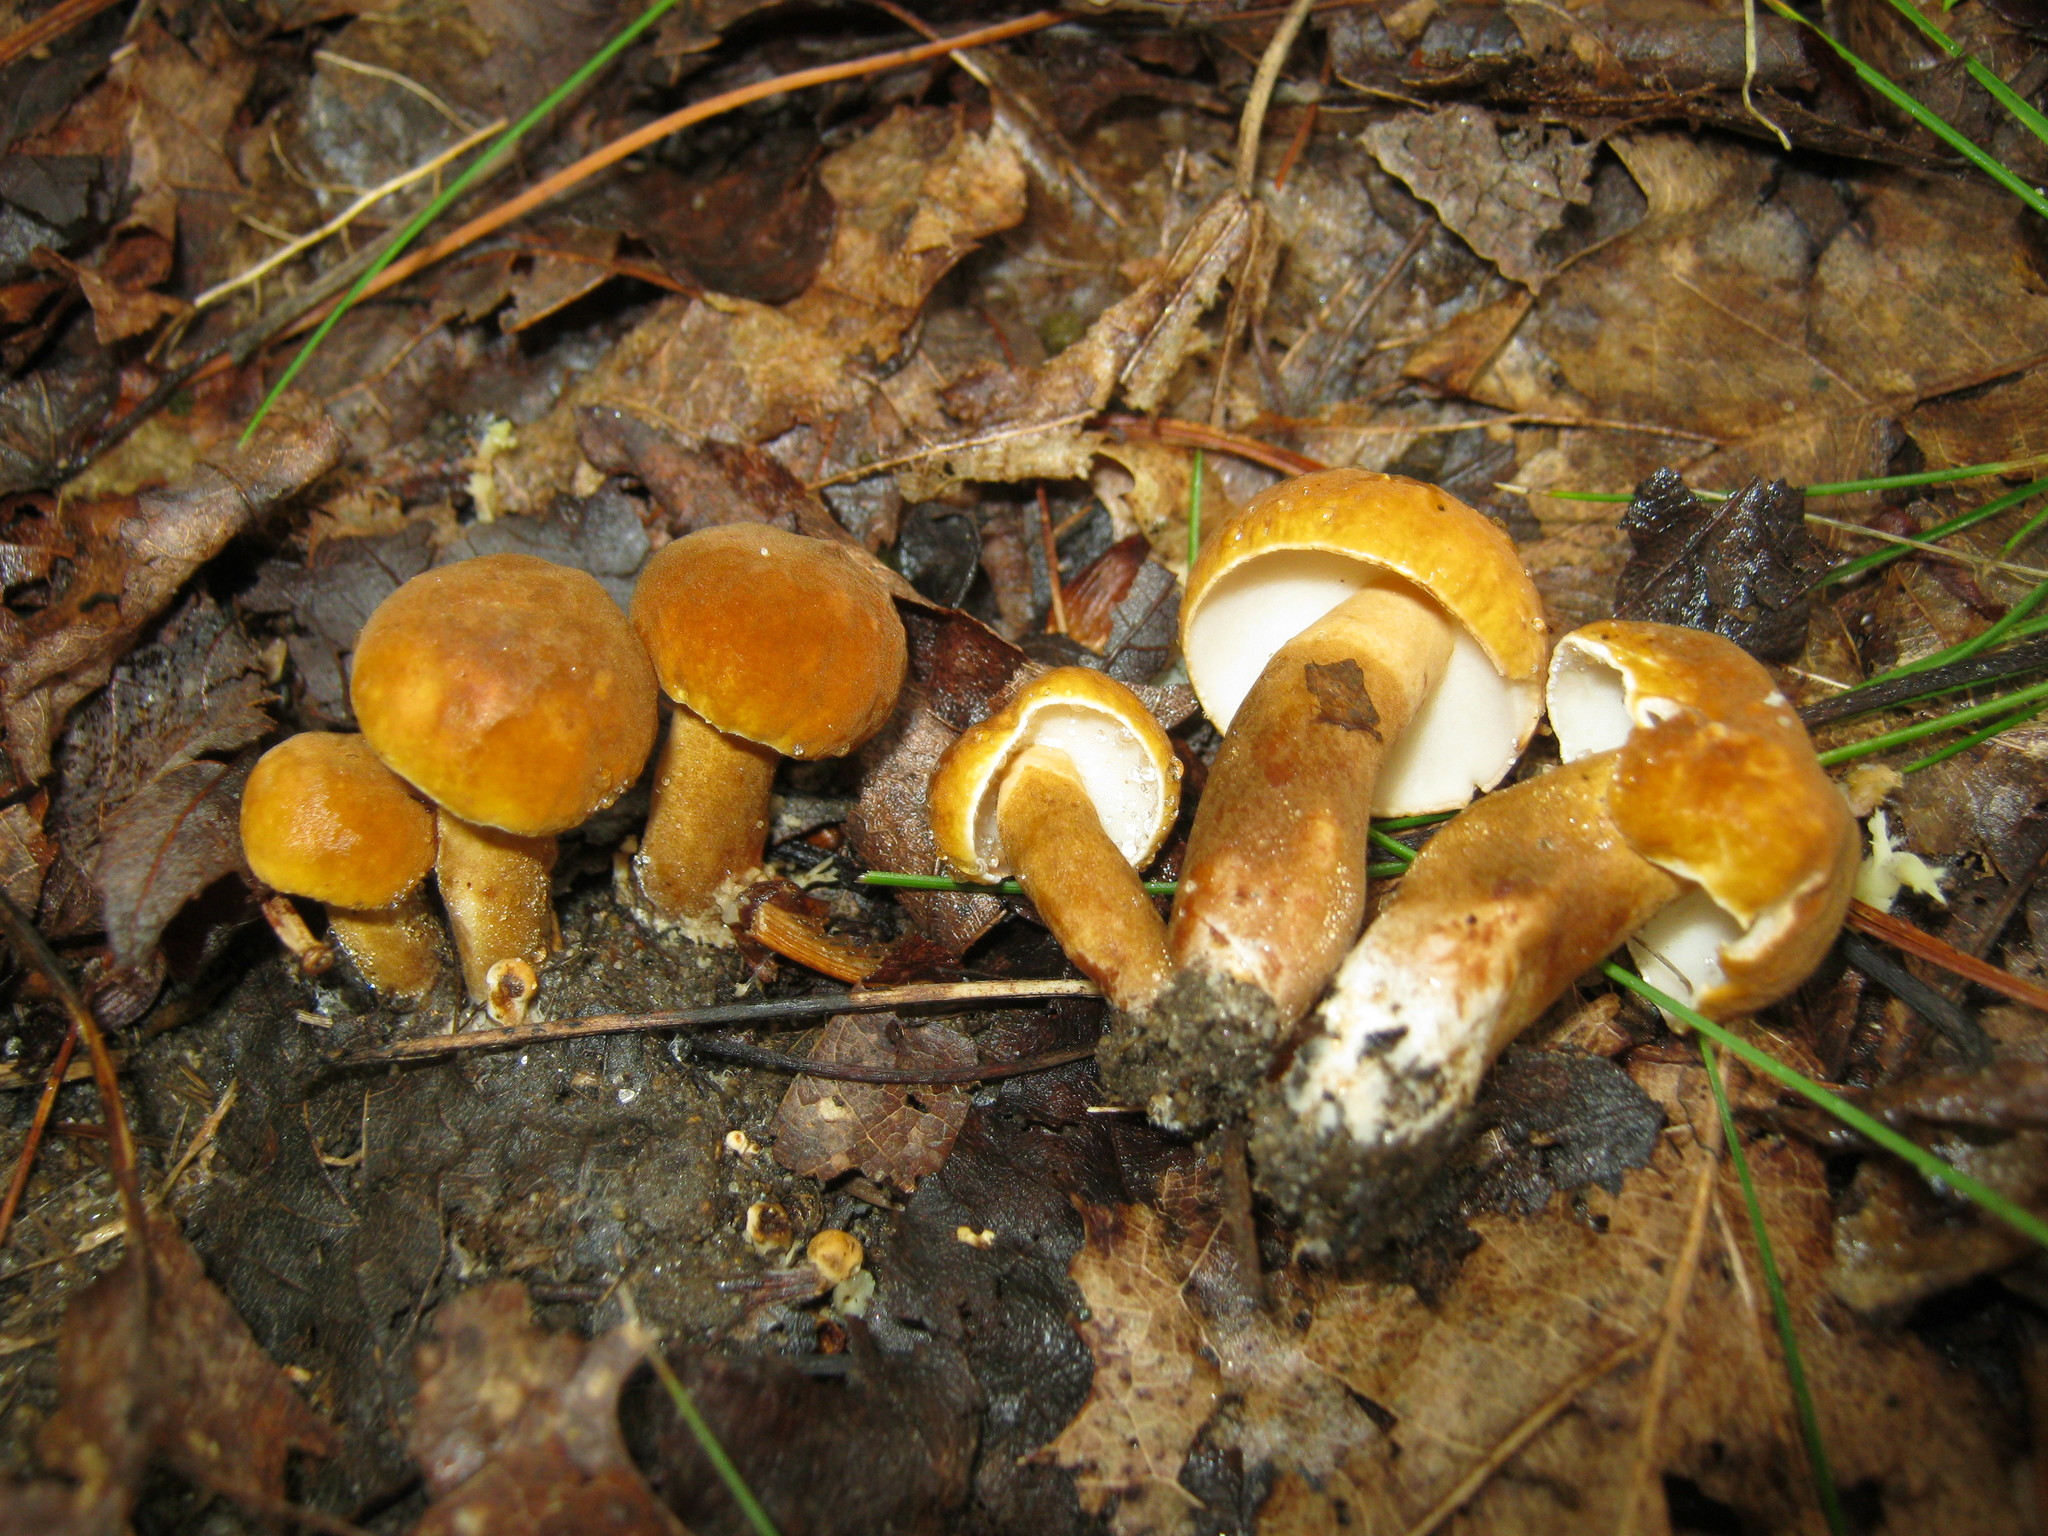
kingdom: Fungi
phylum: Basidiomycota
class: Agaricomycetes
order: Boletales
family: Gyroporaceae
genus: Gyroporus
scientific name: Gyroporus castaneus
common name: Chestnut bolete
